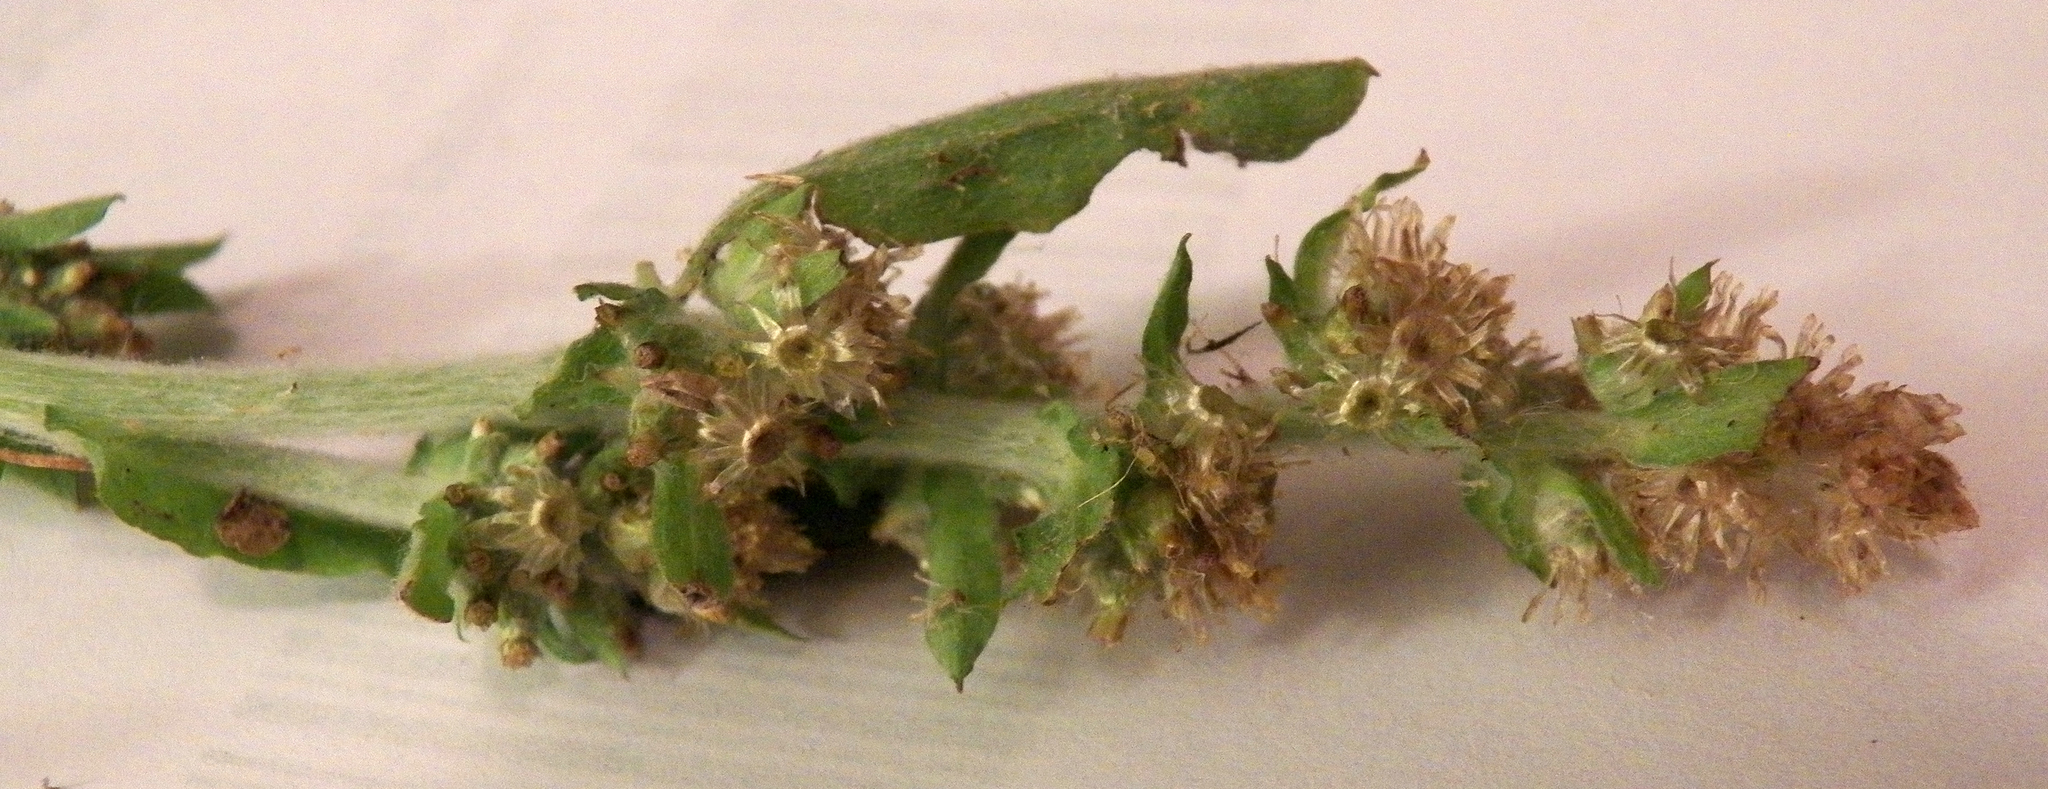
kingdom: Plantae
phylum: Tracheophyta
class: Magnoliopsida
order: Asterales
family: Asteraceae
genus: Gamochaeta
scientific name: Gamochaeta pensylvanica
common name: Pennsylvania everlasting
